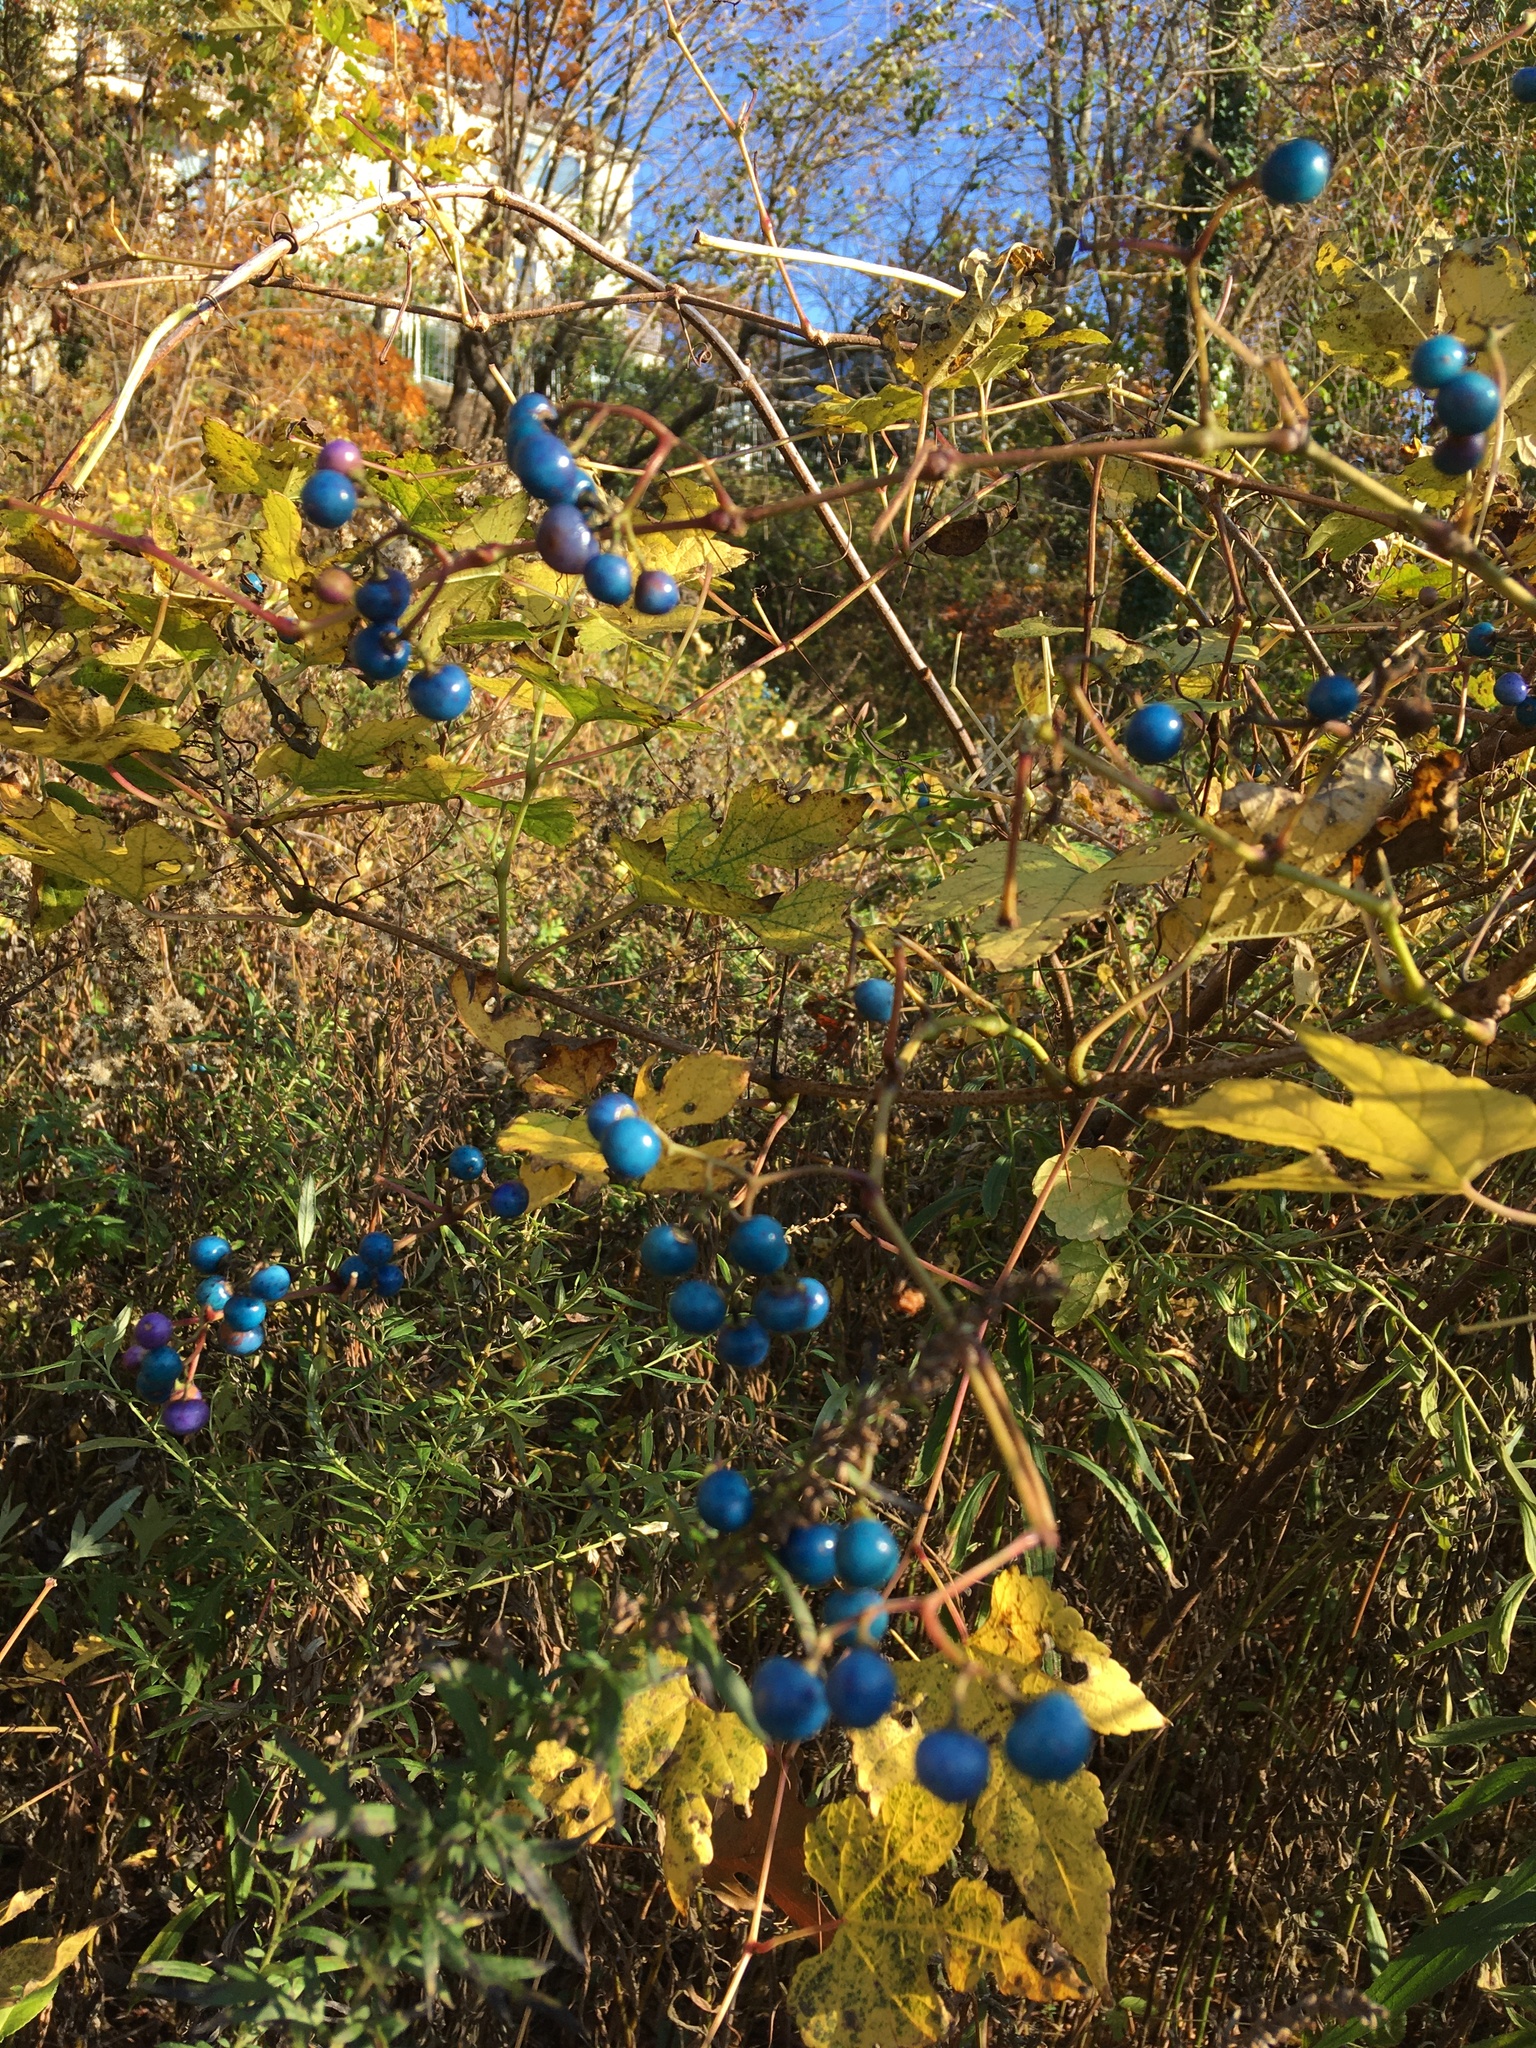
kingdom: Plantae
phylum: Tracheophyta
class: Magnoliopsida
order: Vitales
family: Vitaceae
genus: Ampelopsis
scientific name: Ampelopsis glandulosa
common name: Amur peppervine
